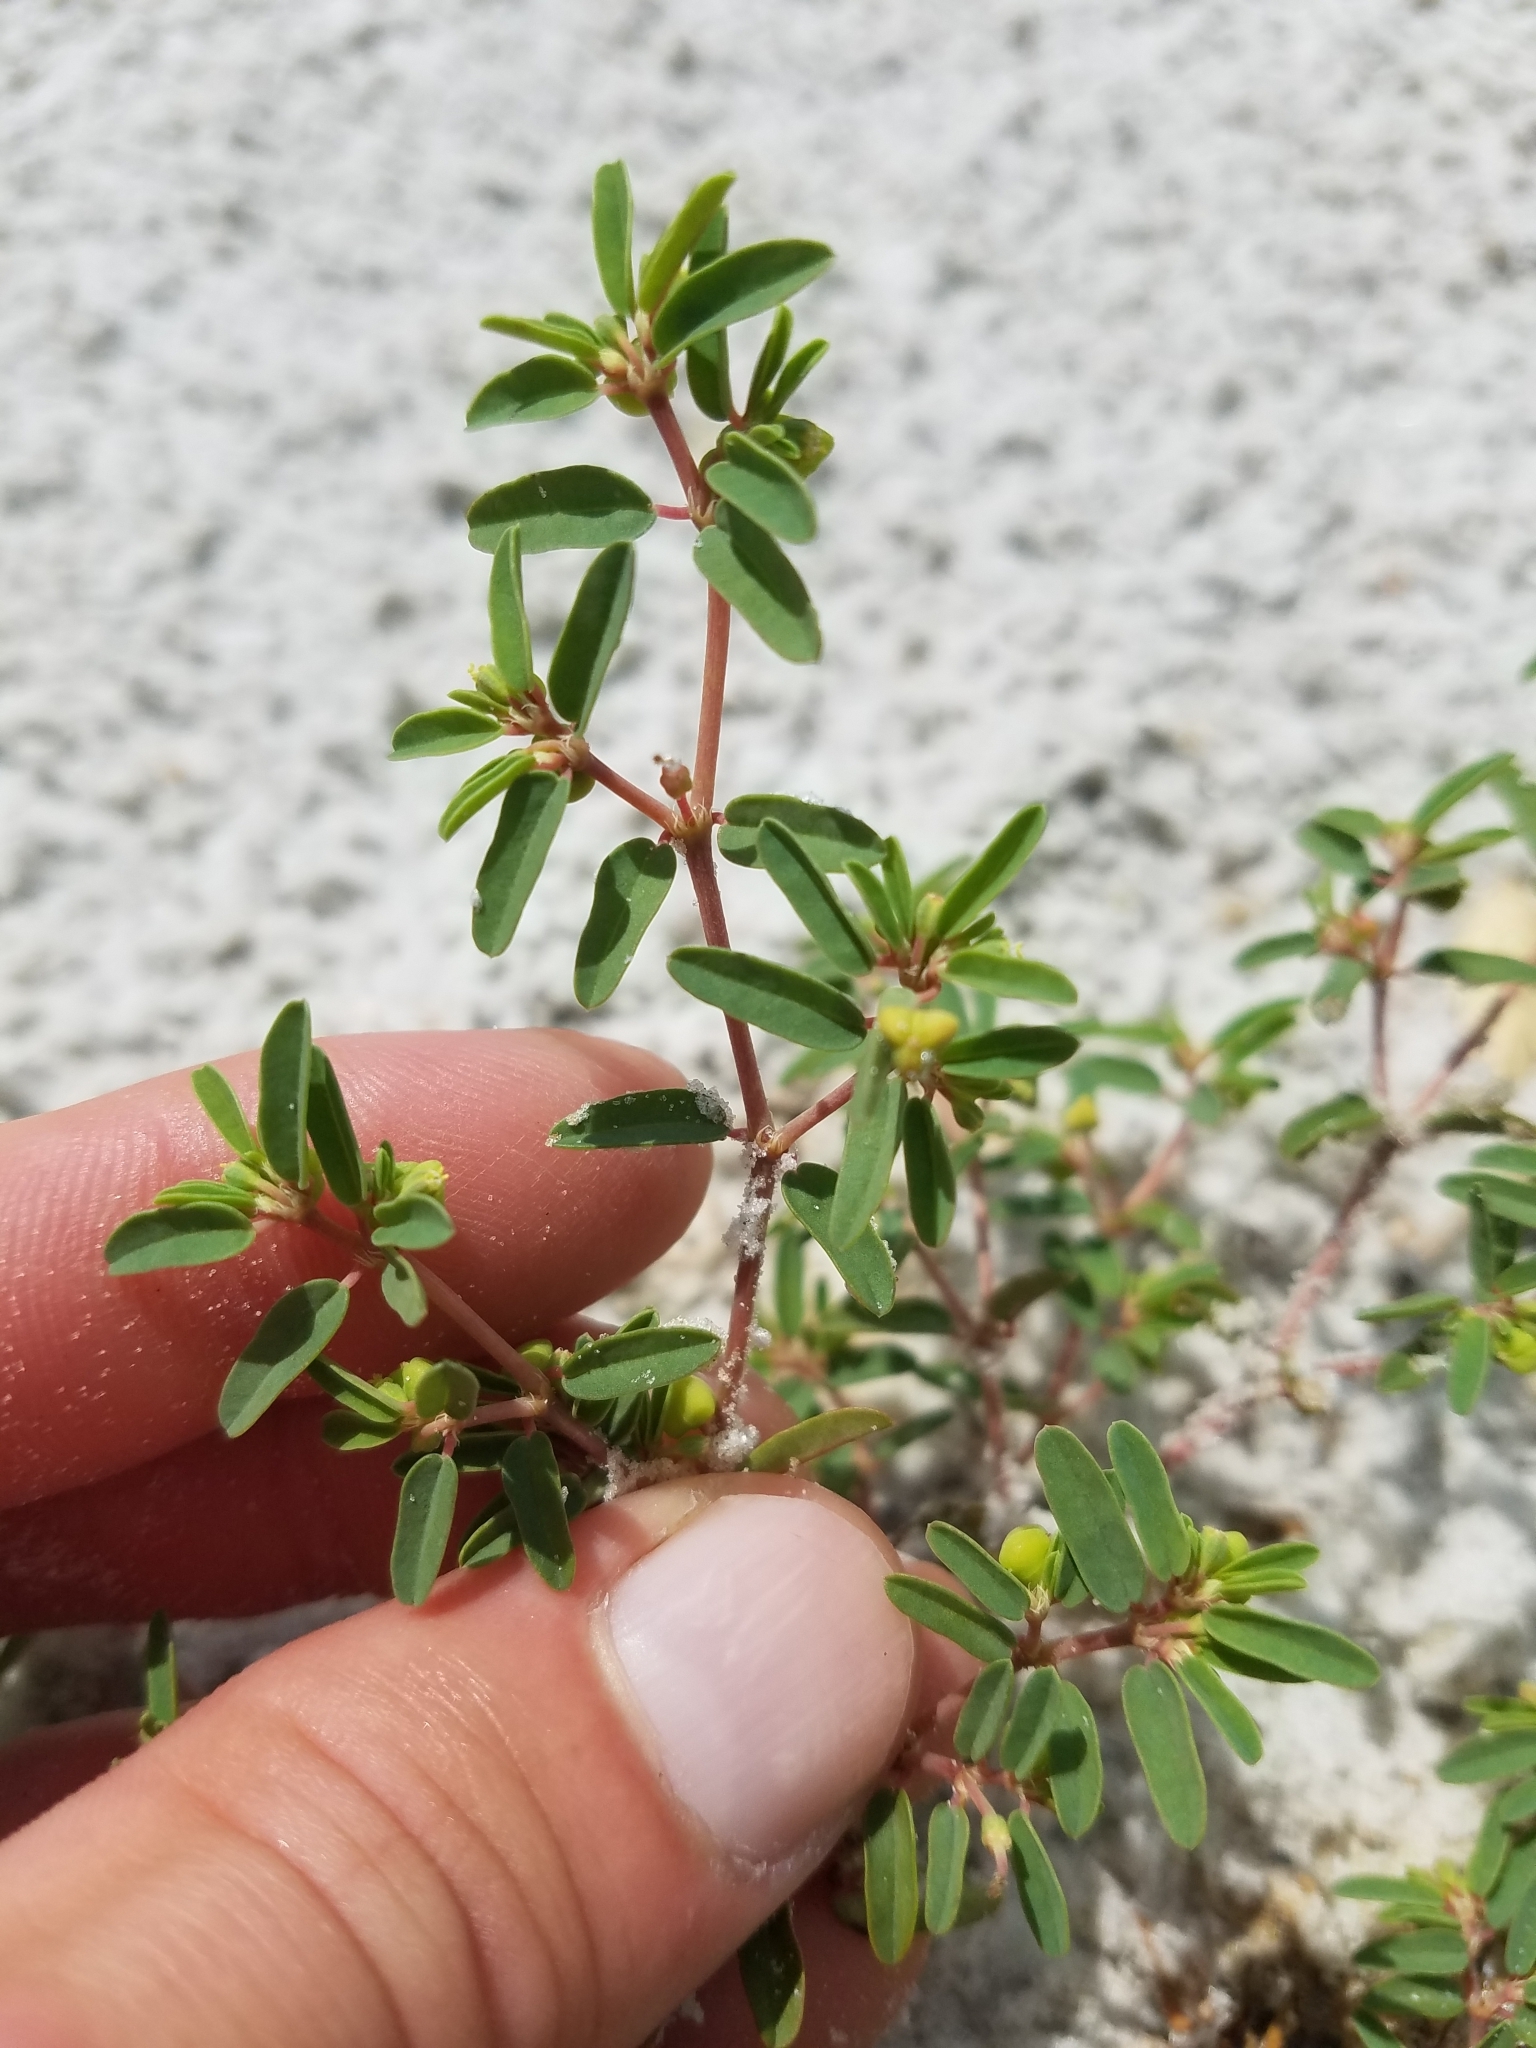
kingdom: Plantae
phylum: Tracheophyta
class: Magnoliopsida
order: Malpighiales
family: Euphorbiaceae
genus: Euphorbia
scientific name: Euphorbia bombensis
